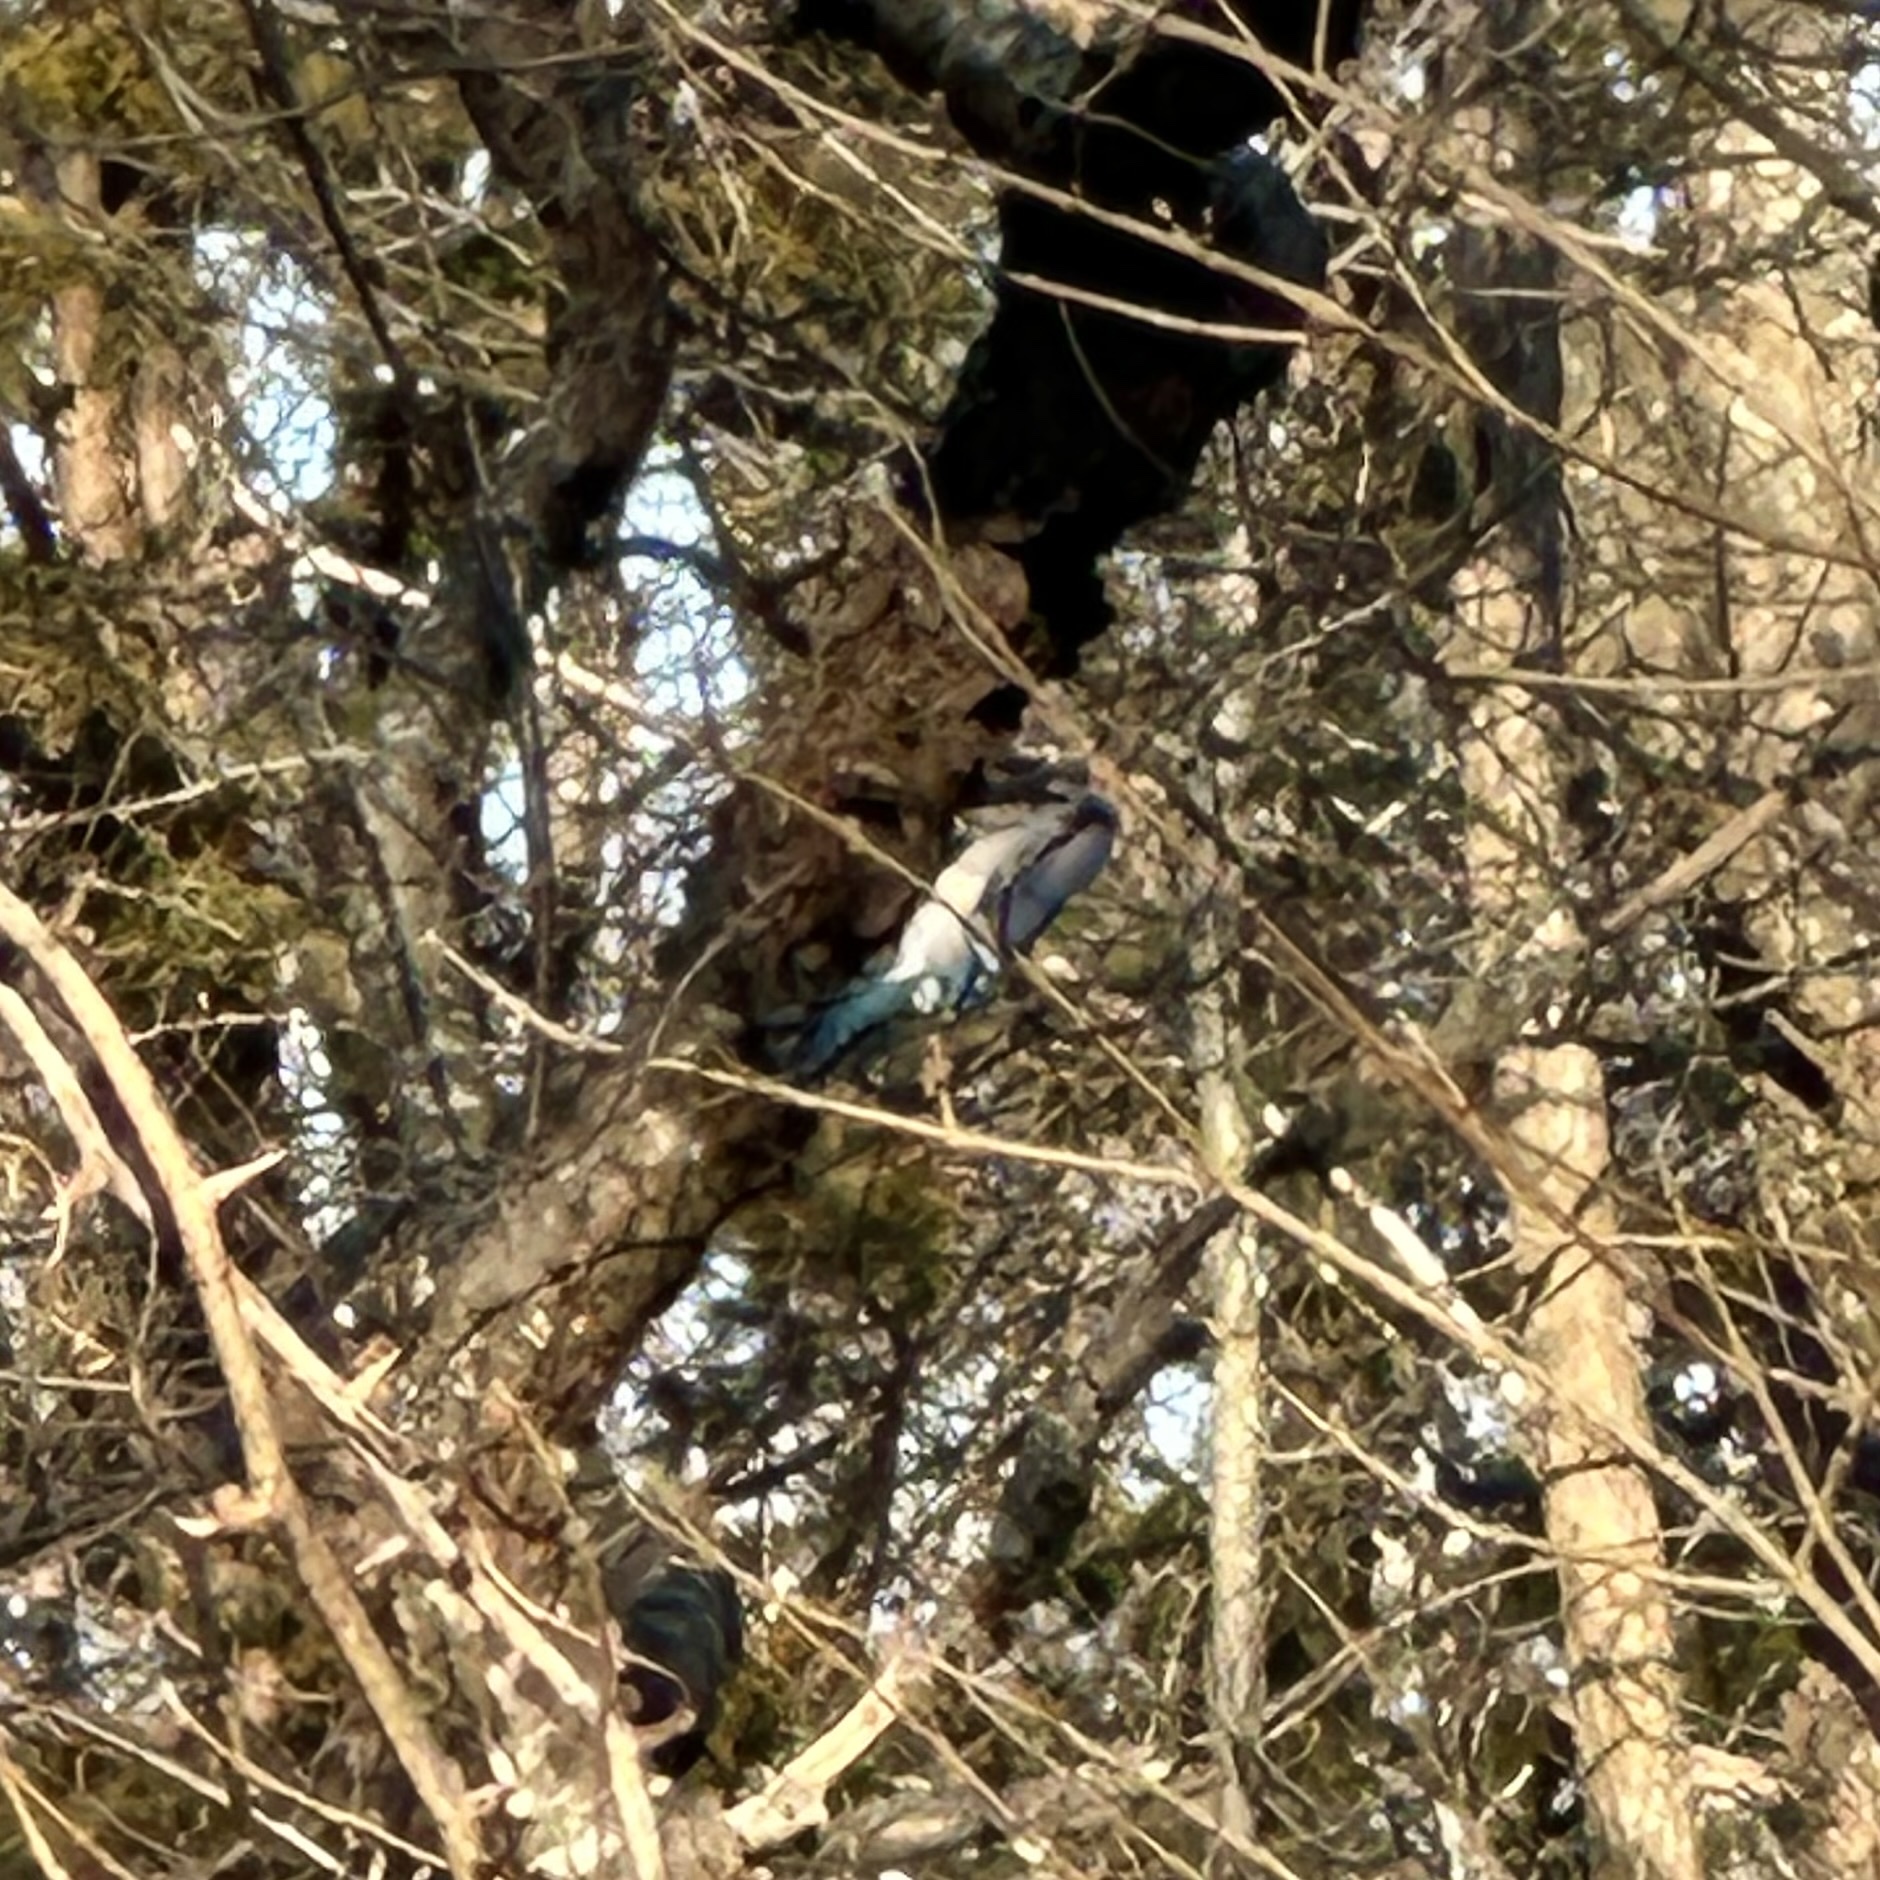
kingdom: Animalia
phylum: Chordata
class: Aves
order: Passeriformes
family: Corvidae
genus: Cyanocitta
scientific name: Cyanocitta cristata
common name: Blue jay
